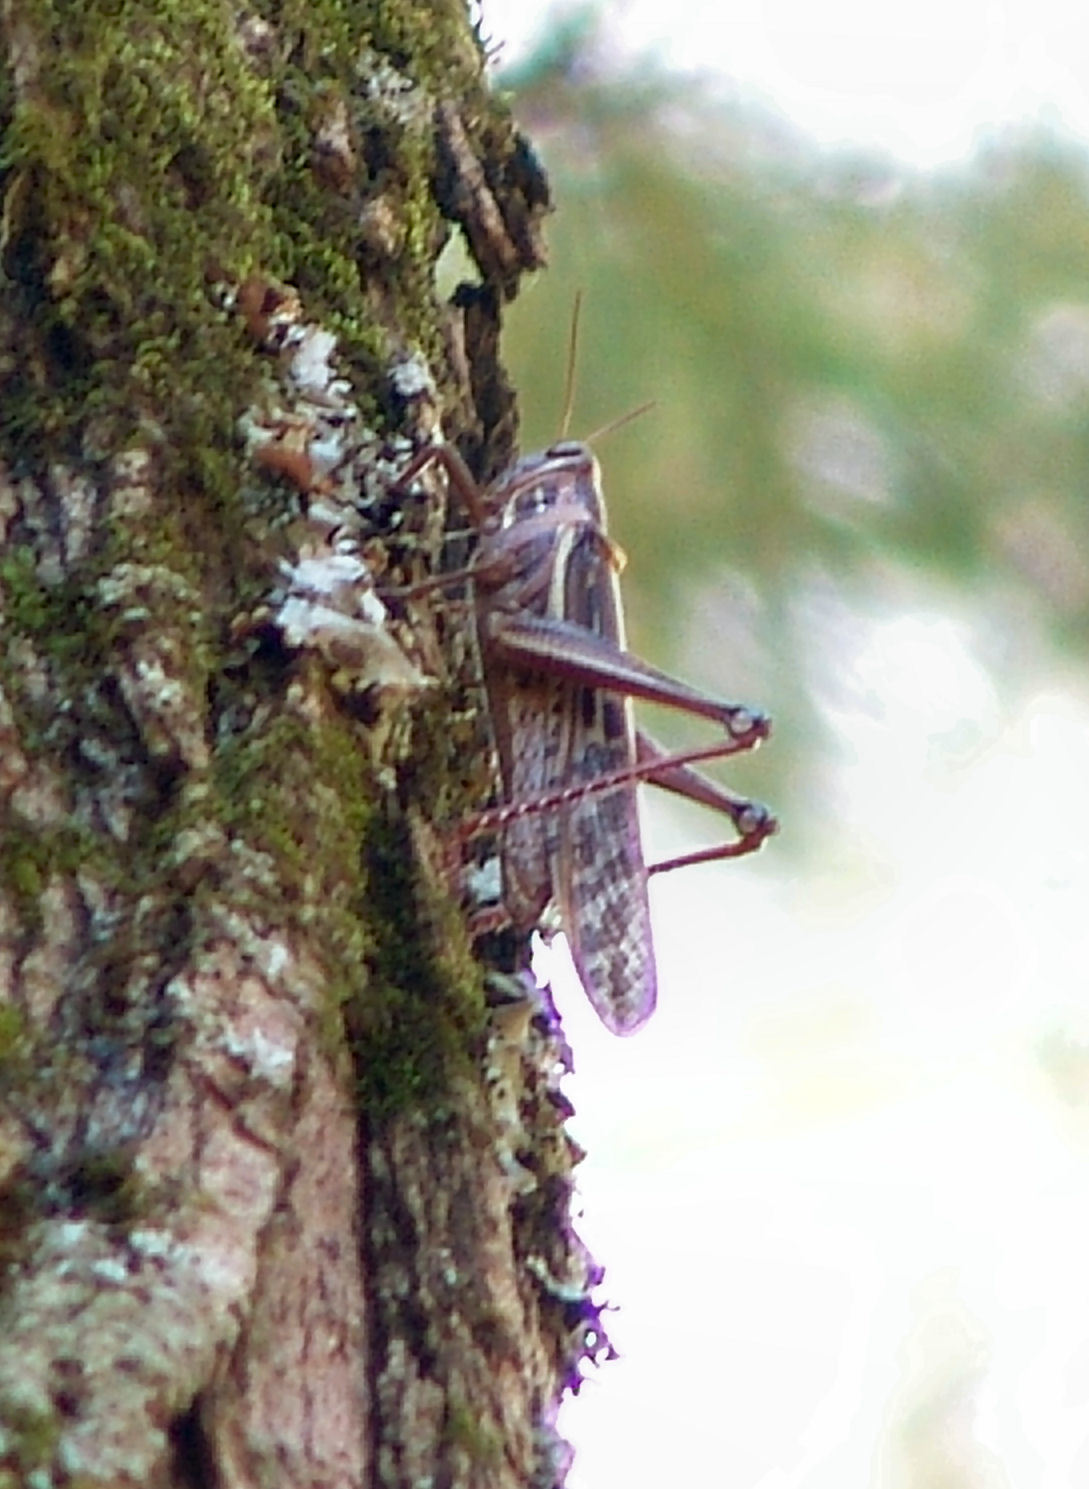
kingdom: Animalia
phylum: Arthropoda
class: Insecta
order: Orthoptera
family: Acrididae
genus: Schistocerca
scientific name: Schistocerca americana
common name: American bird locust
